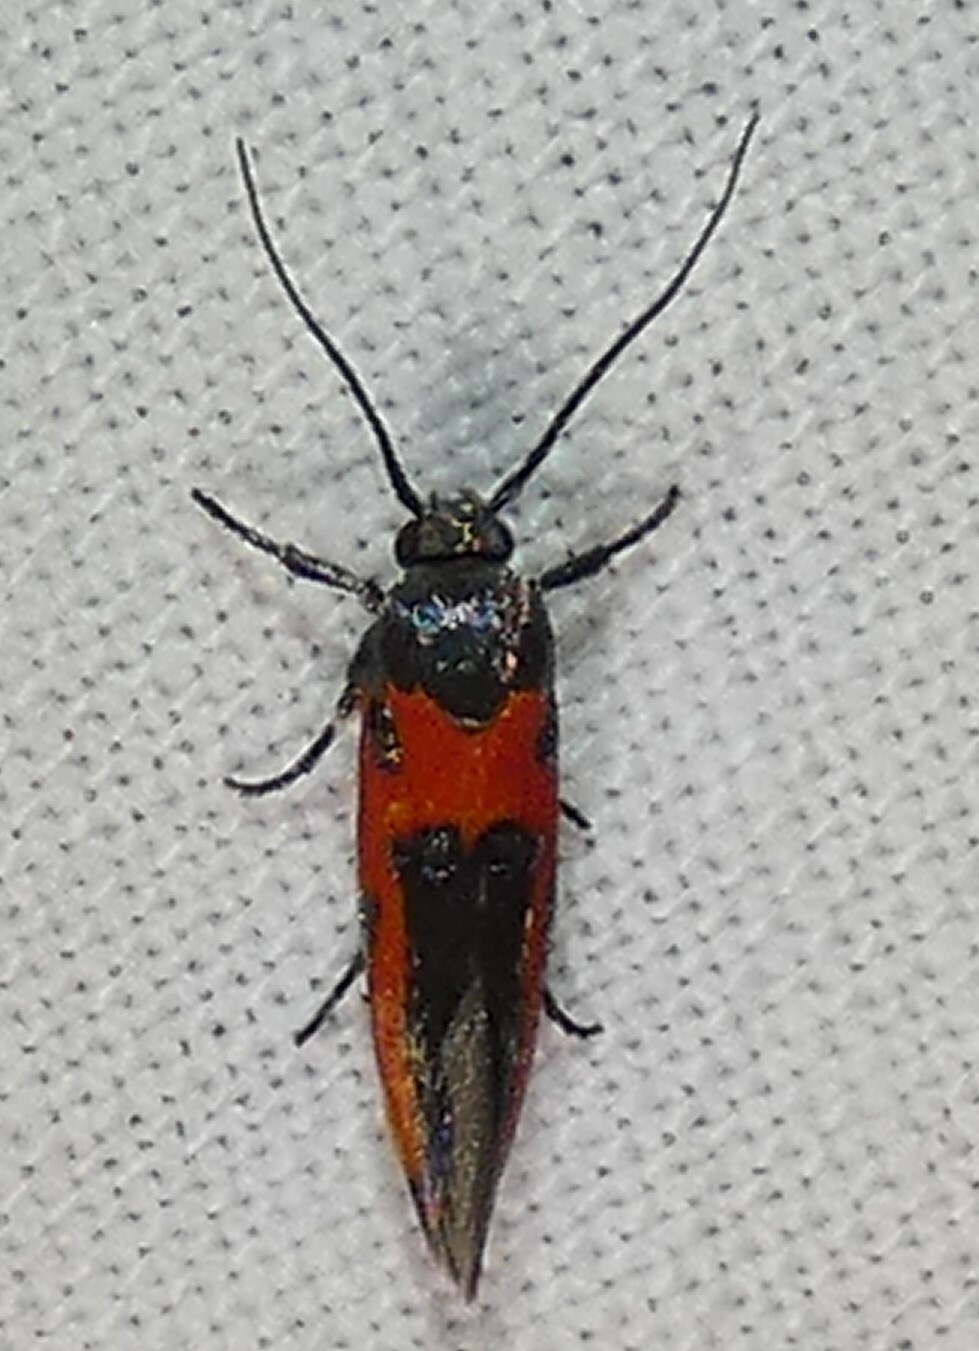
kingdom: Animalia
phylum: Arthropoda
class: Insecta
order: Lepidoptera
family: Cosmopterigidae
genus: Euclemensia
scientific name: Euclemensia bassettella
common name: Kermes scale moth
